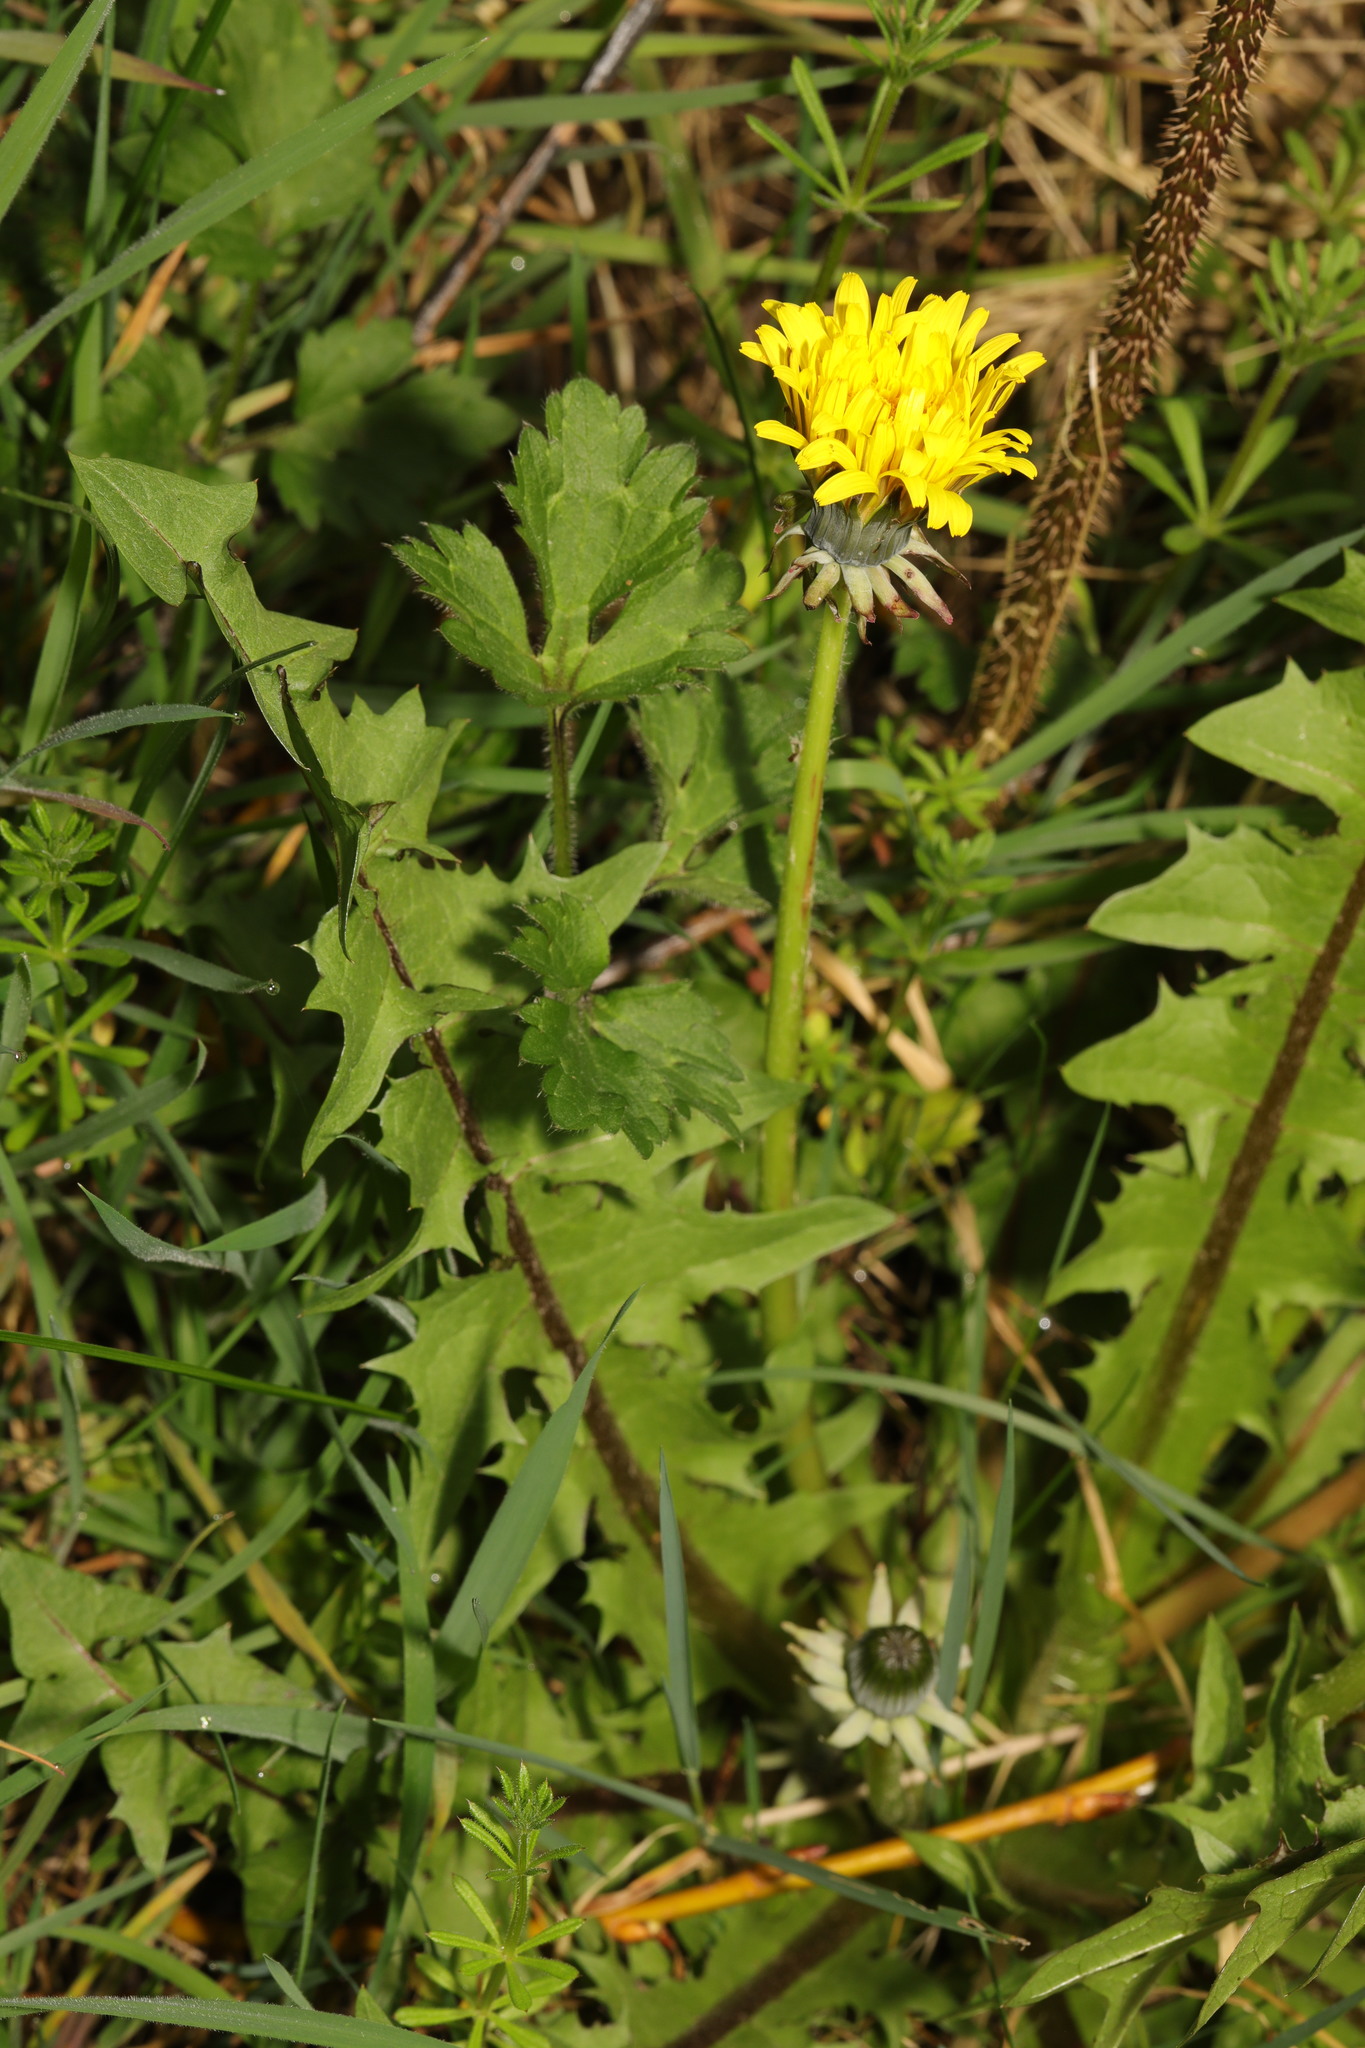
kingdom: Plantae
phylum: Tracheophyta
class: Magnoliopsida
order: Asterales
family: Asteraceae
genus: Taraxacum
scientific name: Taraxacum
